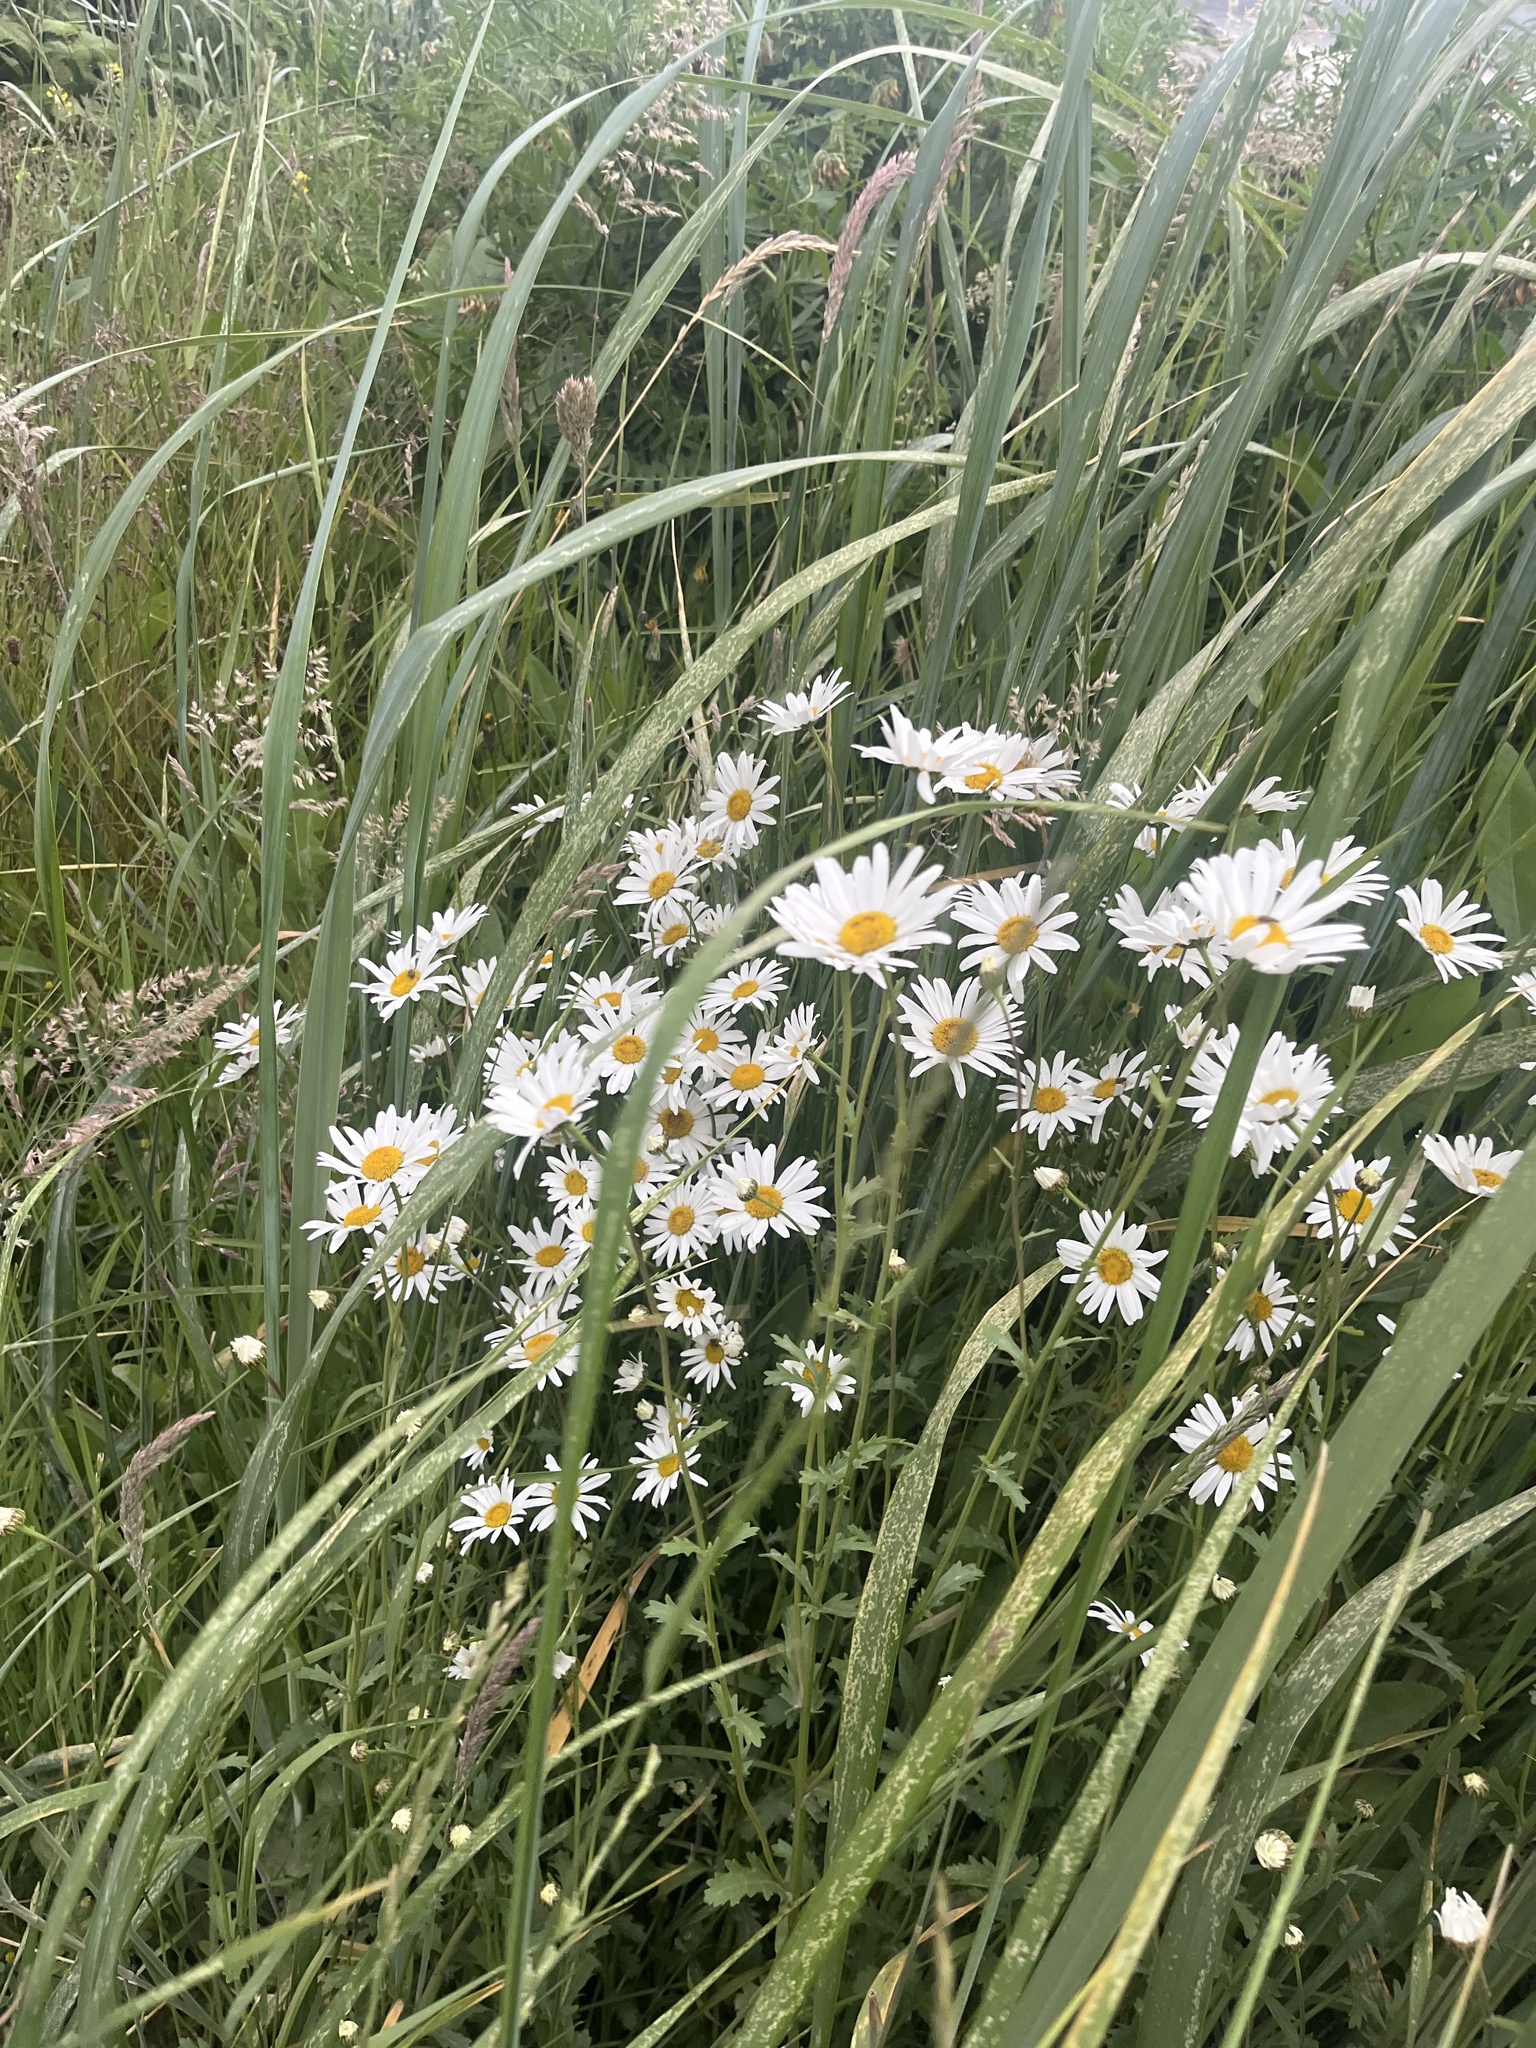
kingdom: Plantae
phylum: Tracheophyta
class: Magnoliopsida
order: Asterales
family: Asteraceae
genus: Leucanthemum
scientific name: Leucanthemum vulgare
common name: Oxeye daisy
